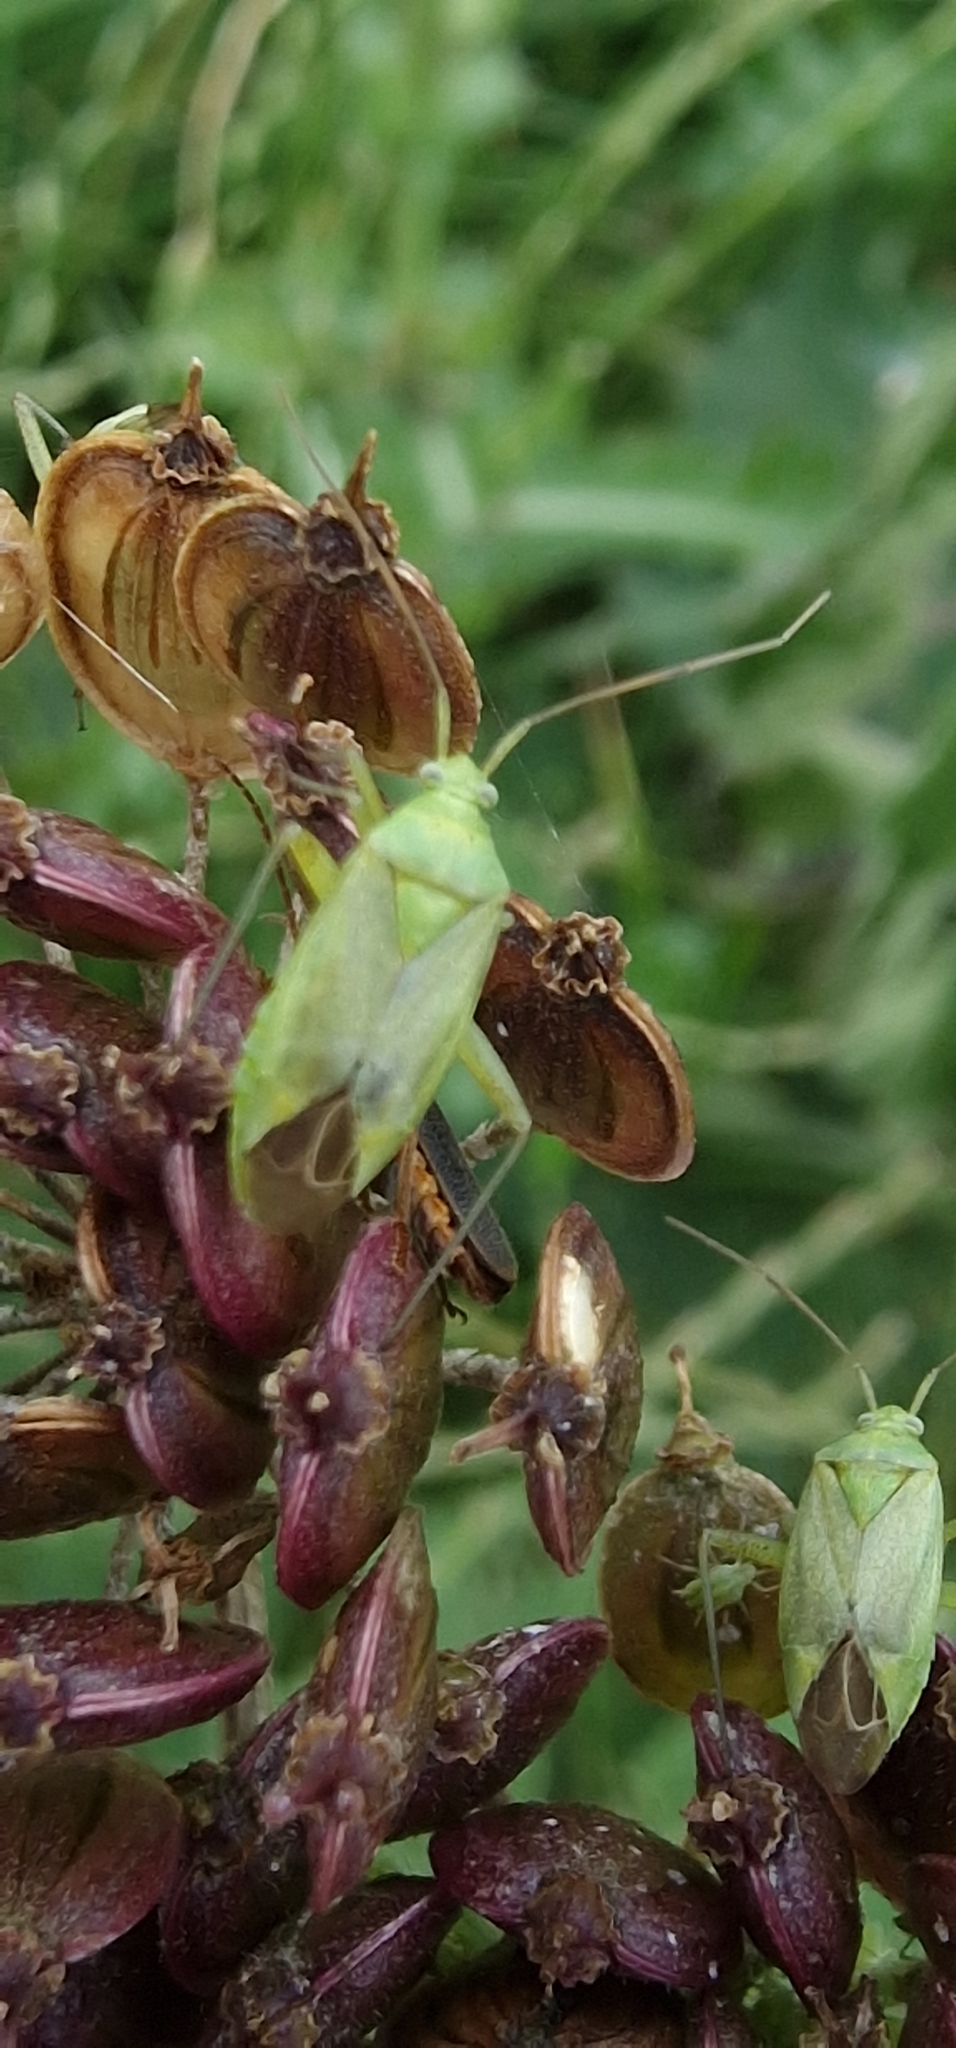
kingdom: Animalia
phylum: Arthropoda
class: Insecta
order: Hemiptera
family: Miridae
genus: Closterotomus
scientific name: Closterotomus norvegicus
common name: Plant bug
